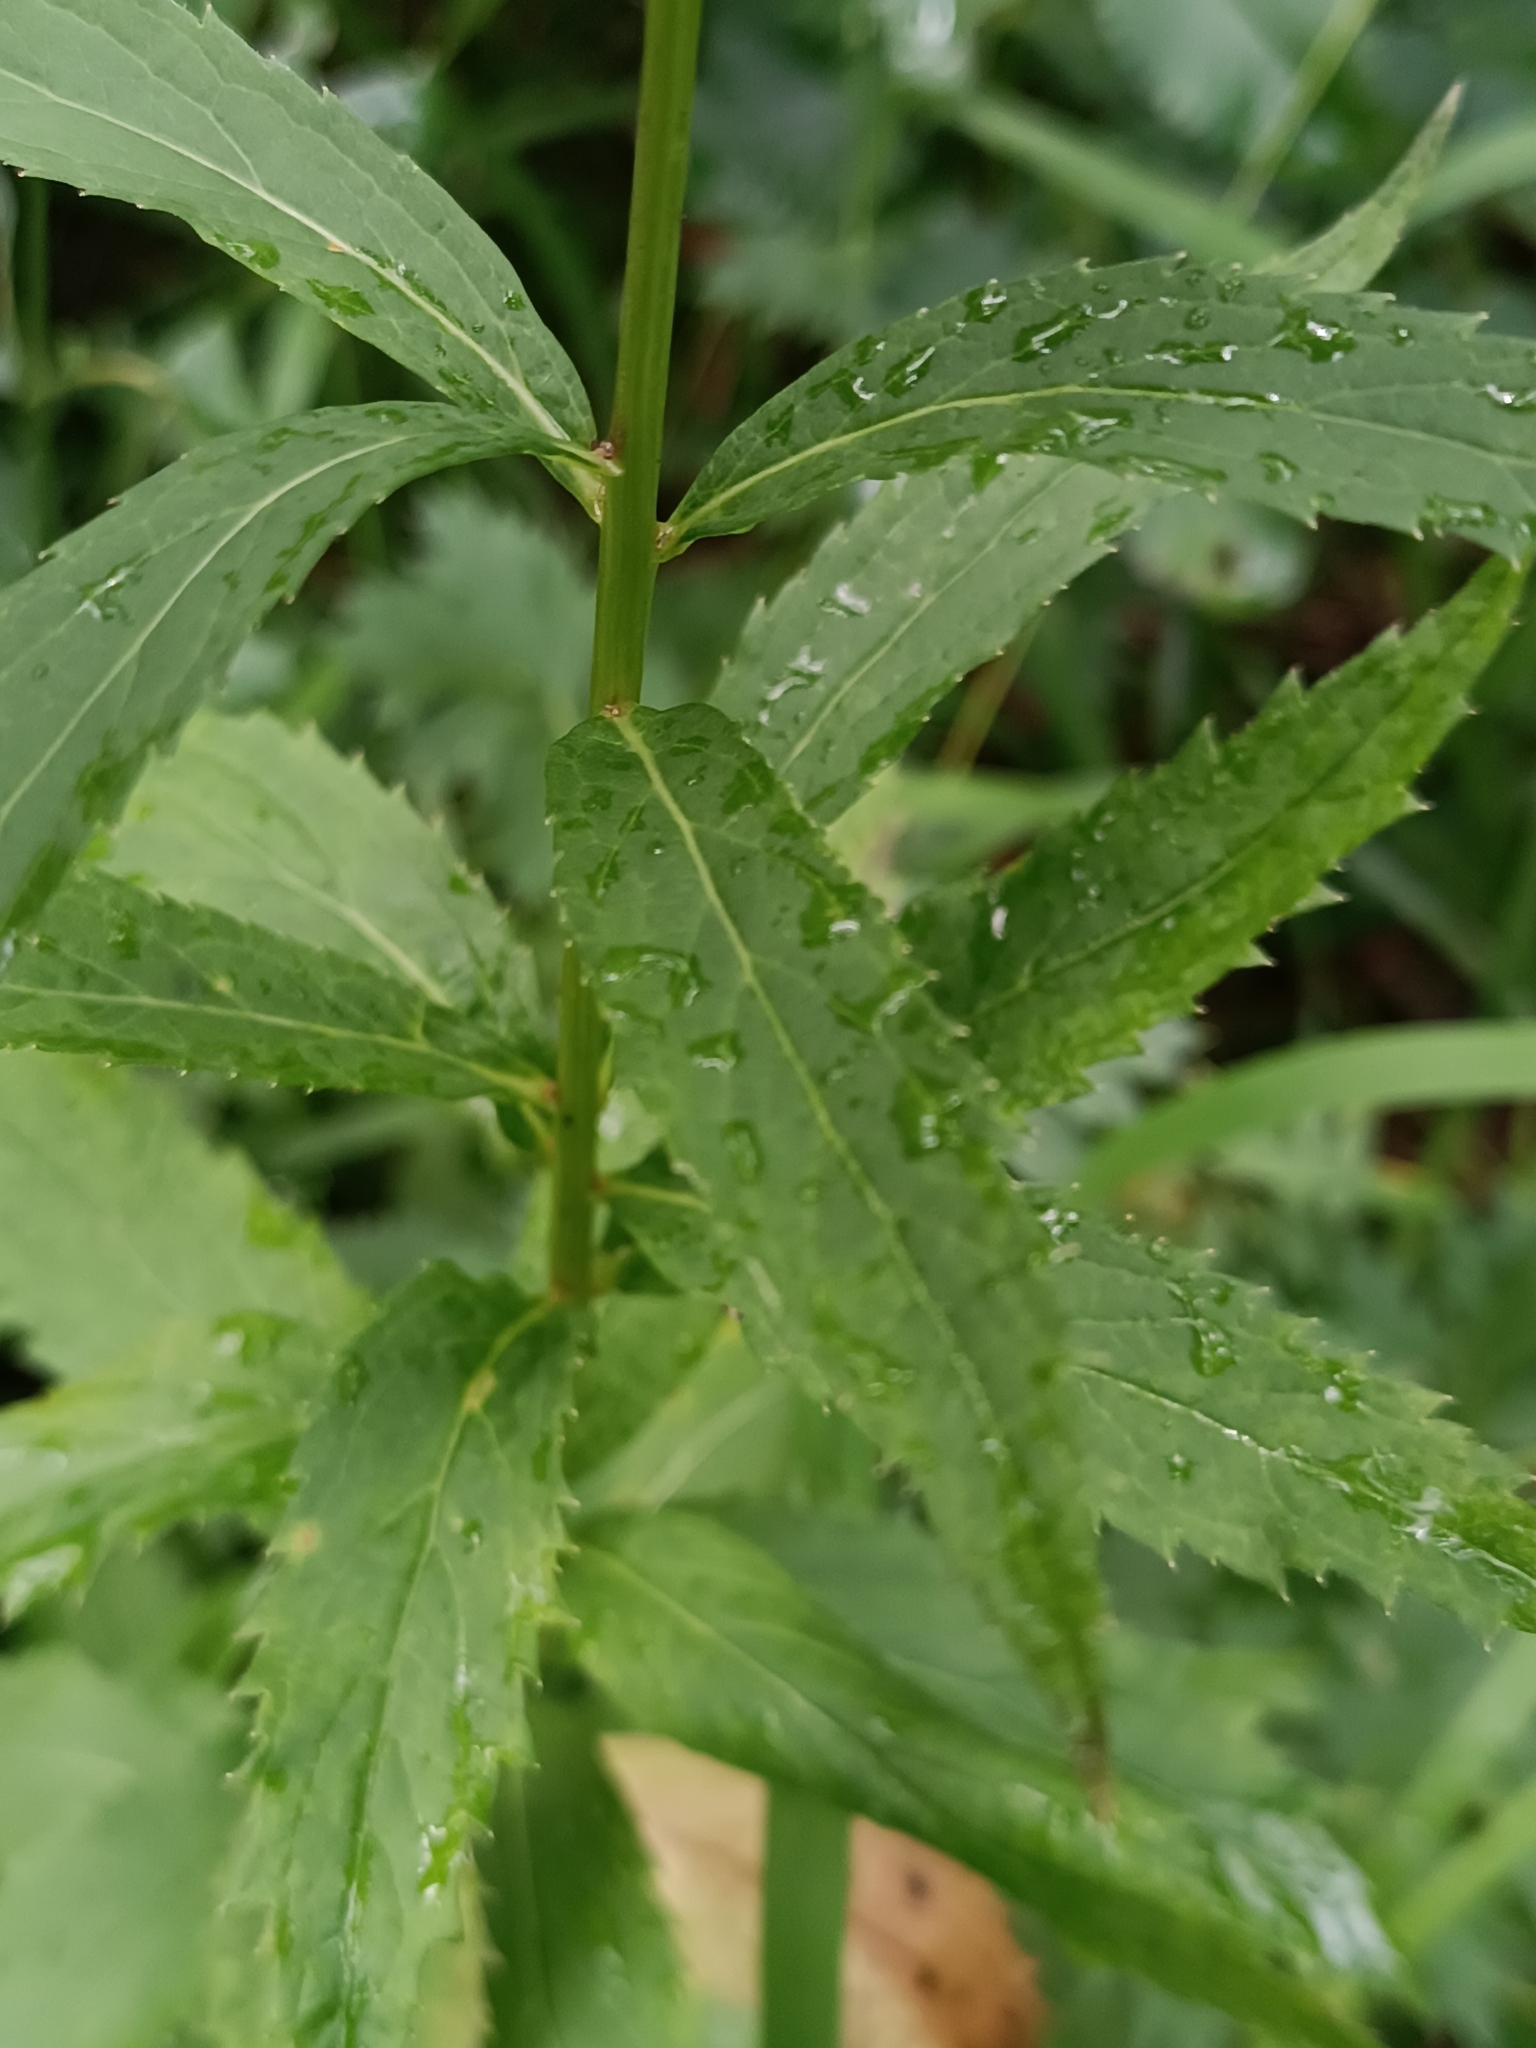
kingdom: Plantae
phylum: Tracheophyta
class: Magnoliopsida
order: Asterales
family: Campanulaceae
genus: Adenophora
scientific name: Adenophora liliifolia
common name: Lilyleaf ladybells
